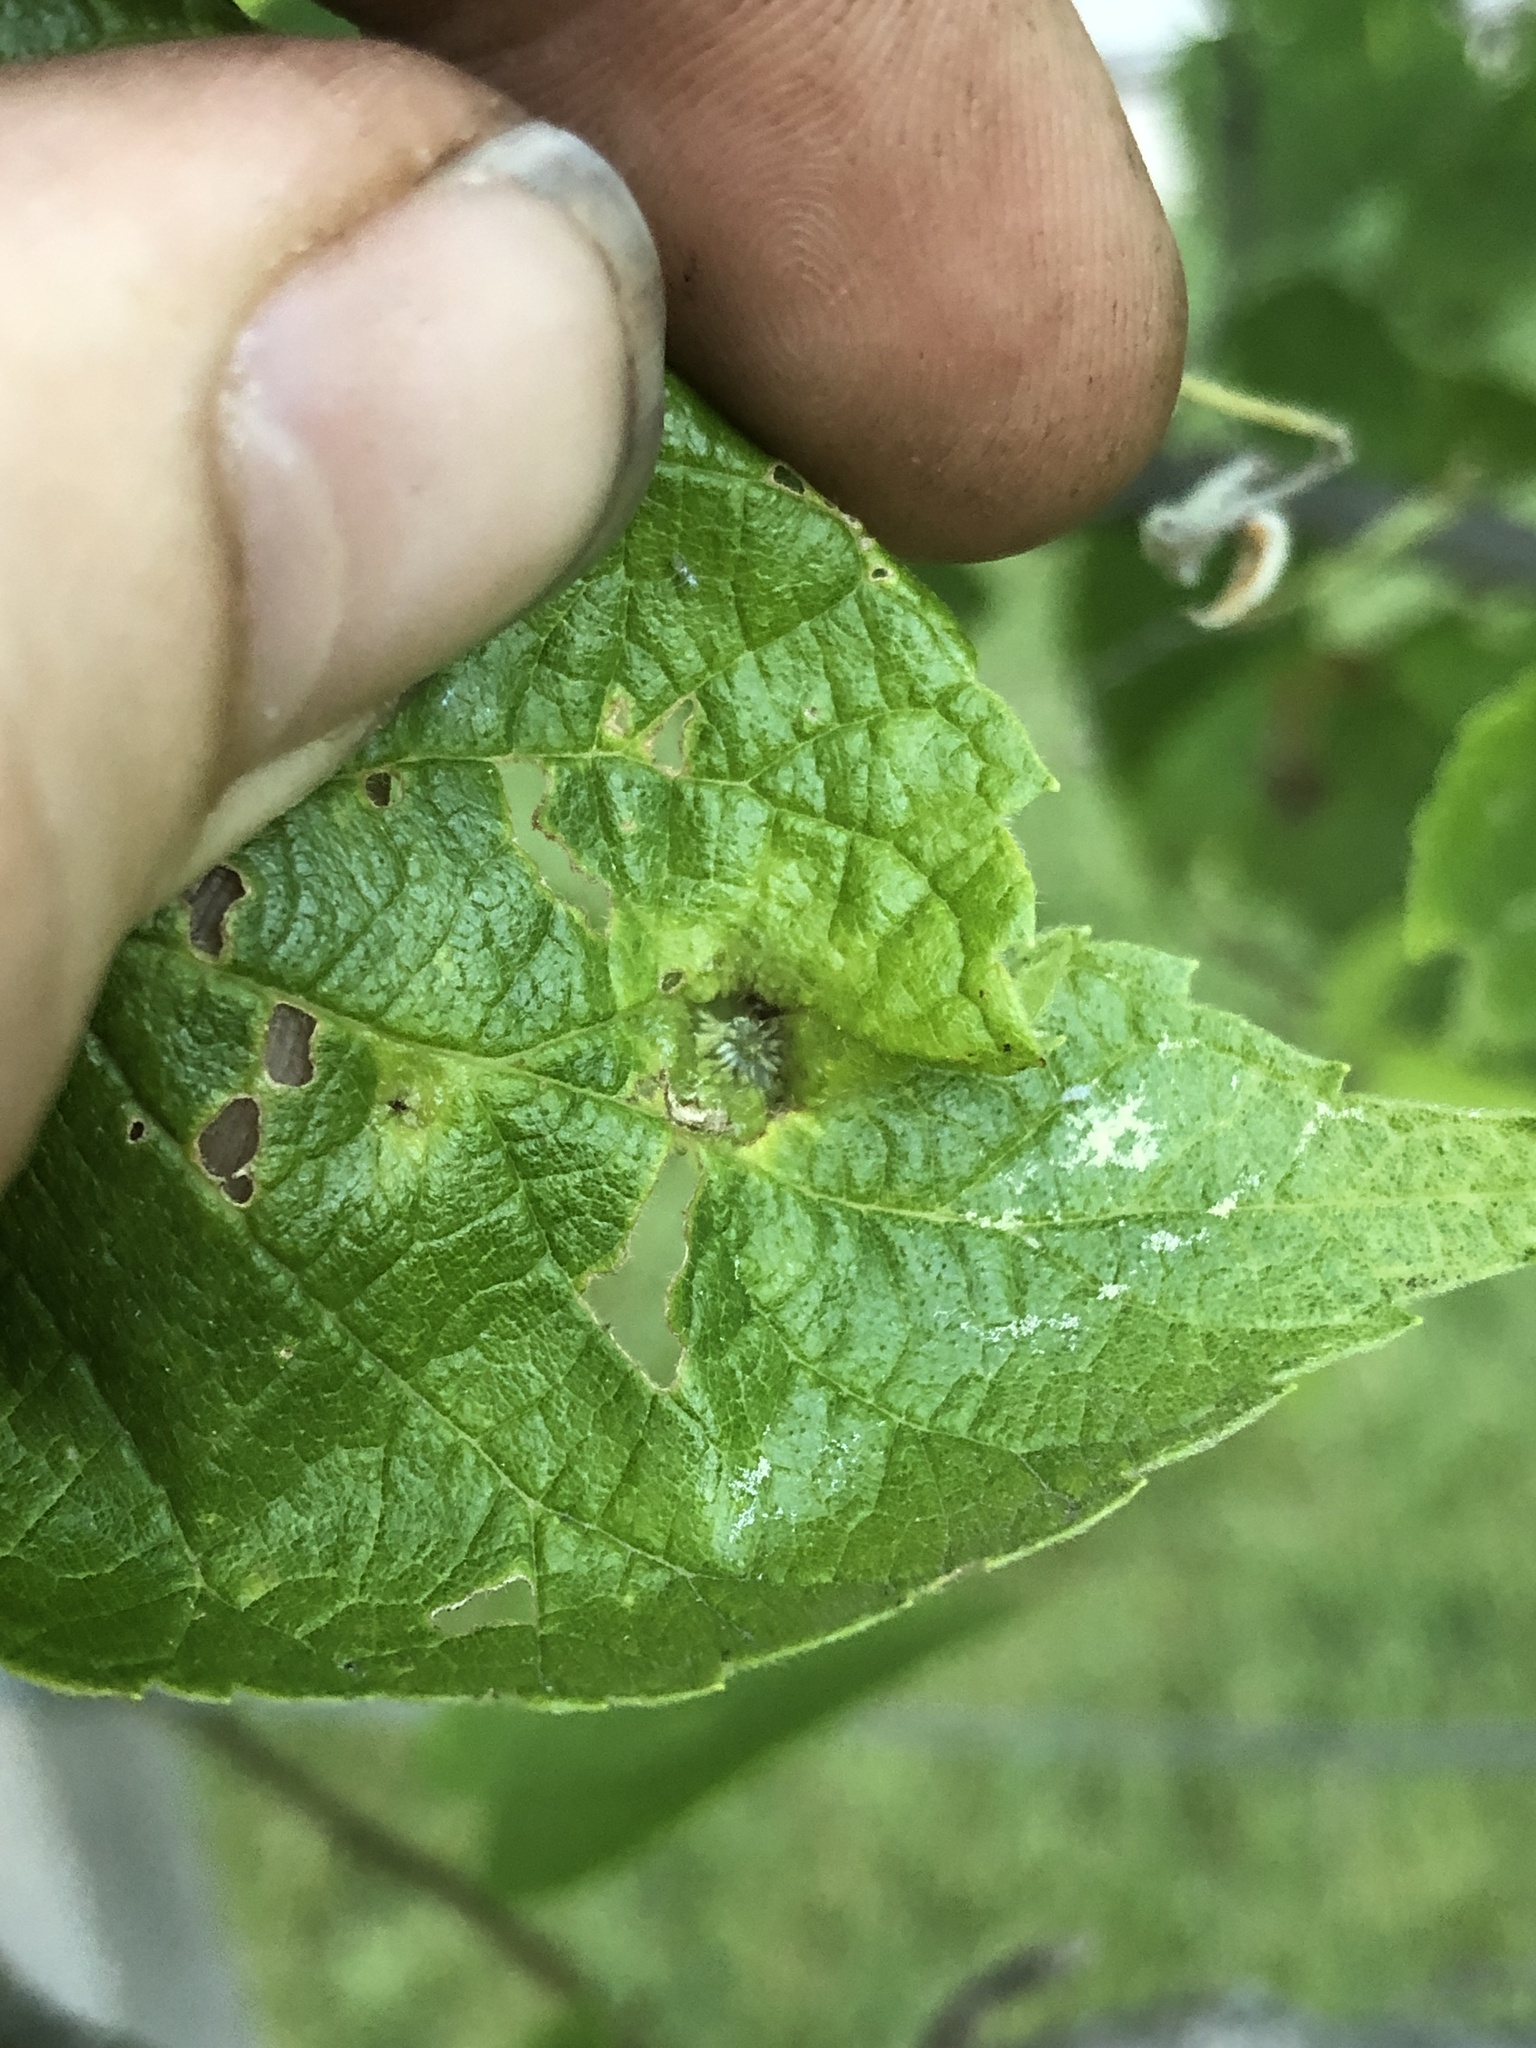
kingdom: Animalia
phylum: Arthropoda
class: Insecta
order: Hemiptera
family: Aphalaridae
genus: Pachypsylla
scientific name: Pachypsylla celtidismamma
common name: Hackberry nipplegall psyllid
